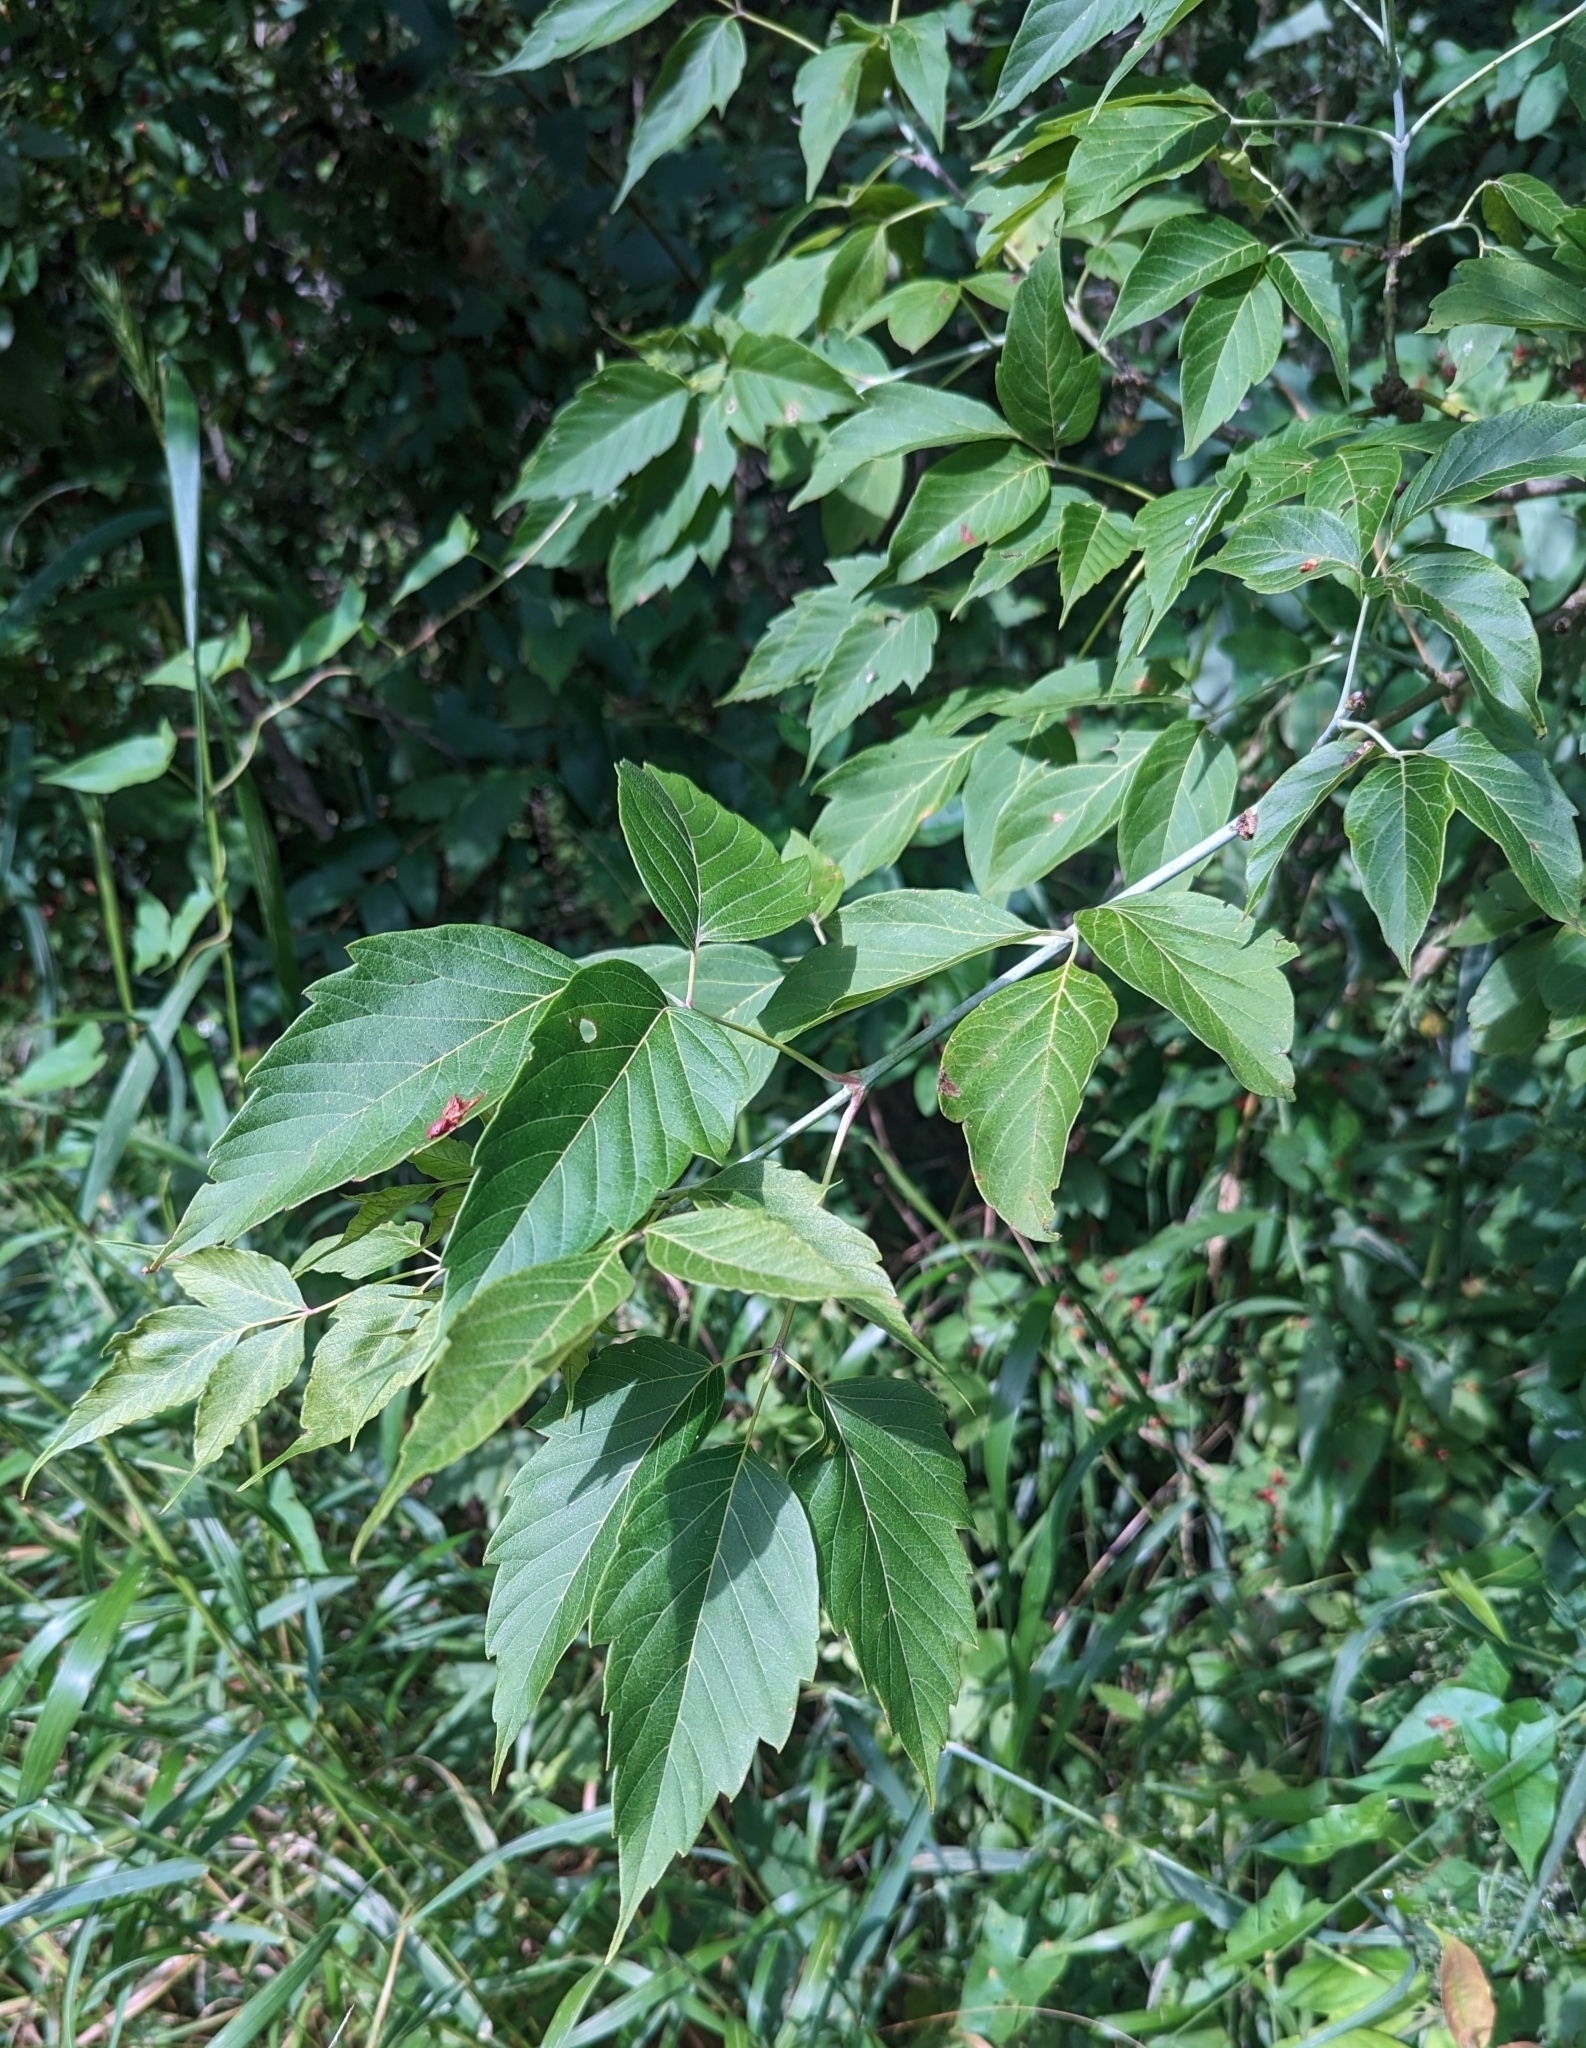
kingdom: Plantae
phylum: Tracheophyta
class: Magnoliopsida
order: Sapindales
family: Sapindaceae
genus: Acer
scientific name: Acer negundo
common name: Ashleaf maple
